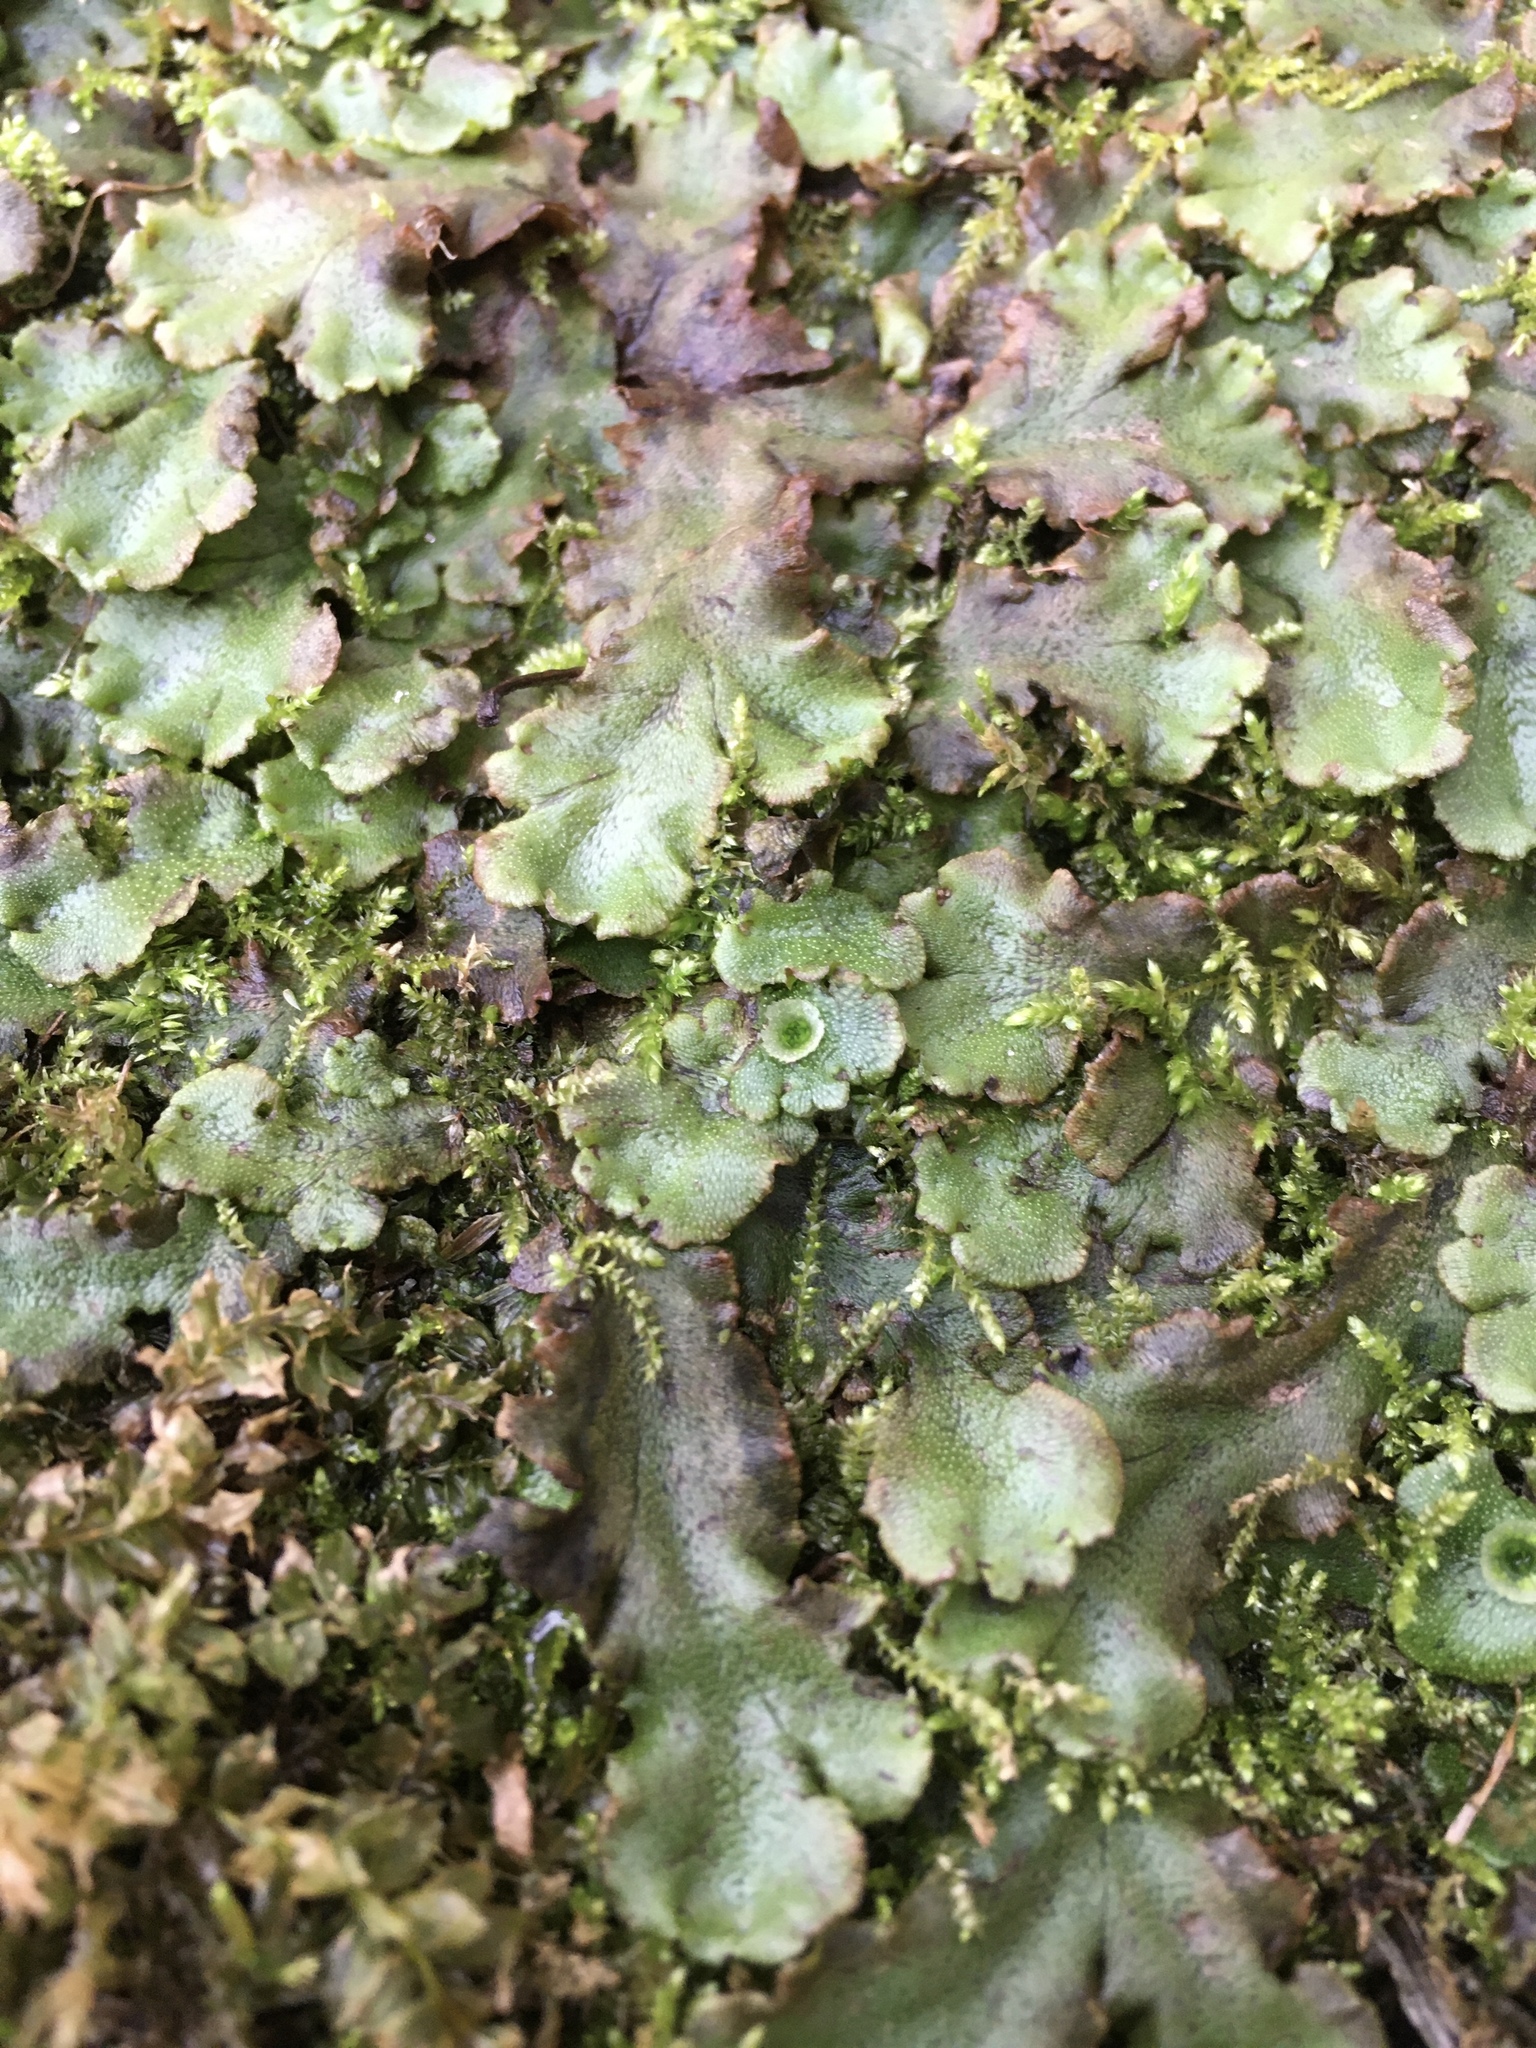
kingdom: Plantae
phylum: Marchantiophyta
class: Marchantiopsida
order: Marchantiales
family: Marchantiaceae
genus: Marchantia
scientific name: Marchantia polymorpha
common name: Common liverwort
